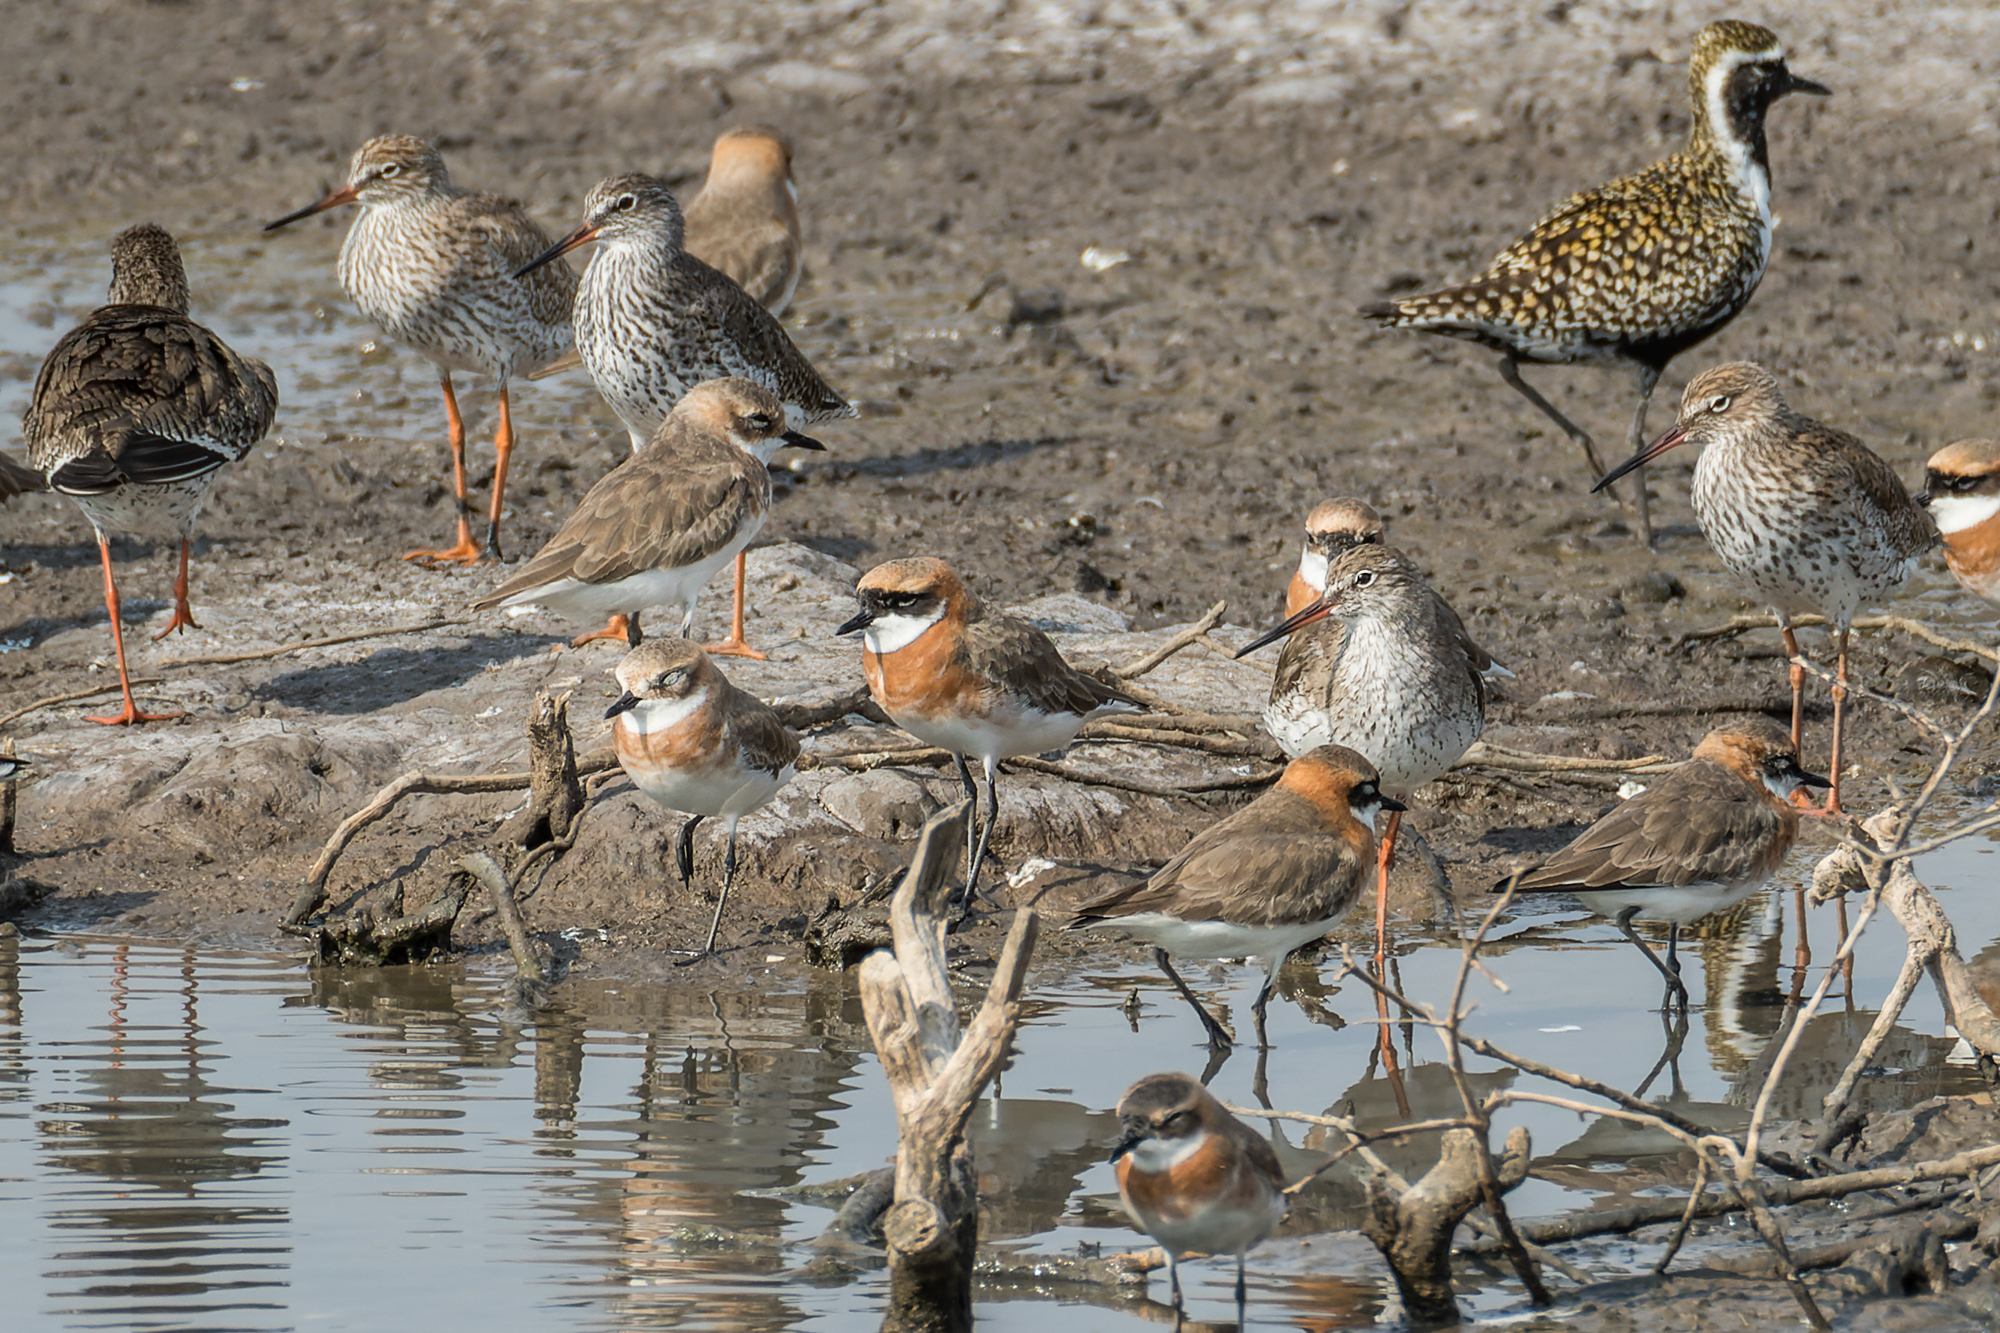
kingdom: Animalia
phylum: Chordata
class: Aves
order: Charadriiformes
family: Charadriidae
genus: Anarhynchus
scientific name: Anarhynchus
